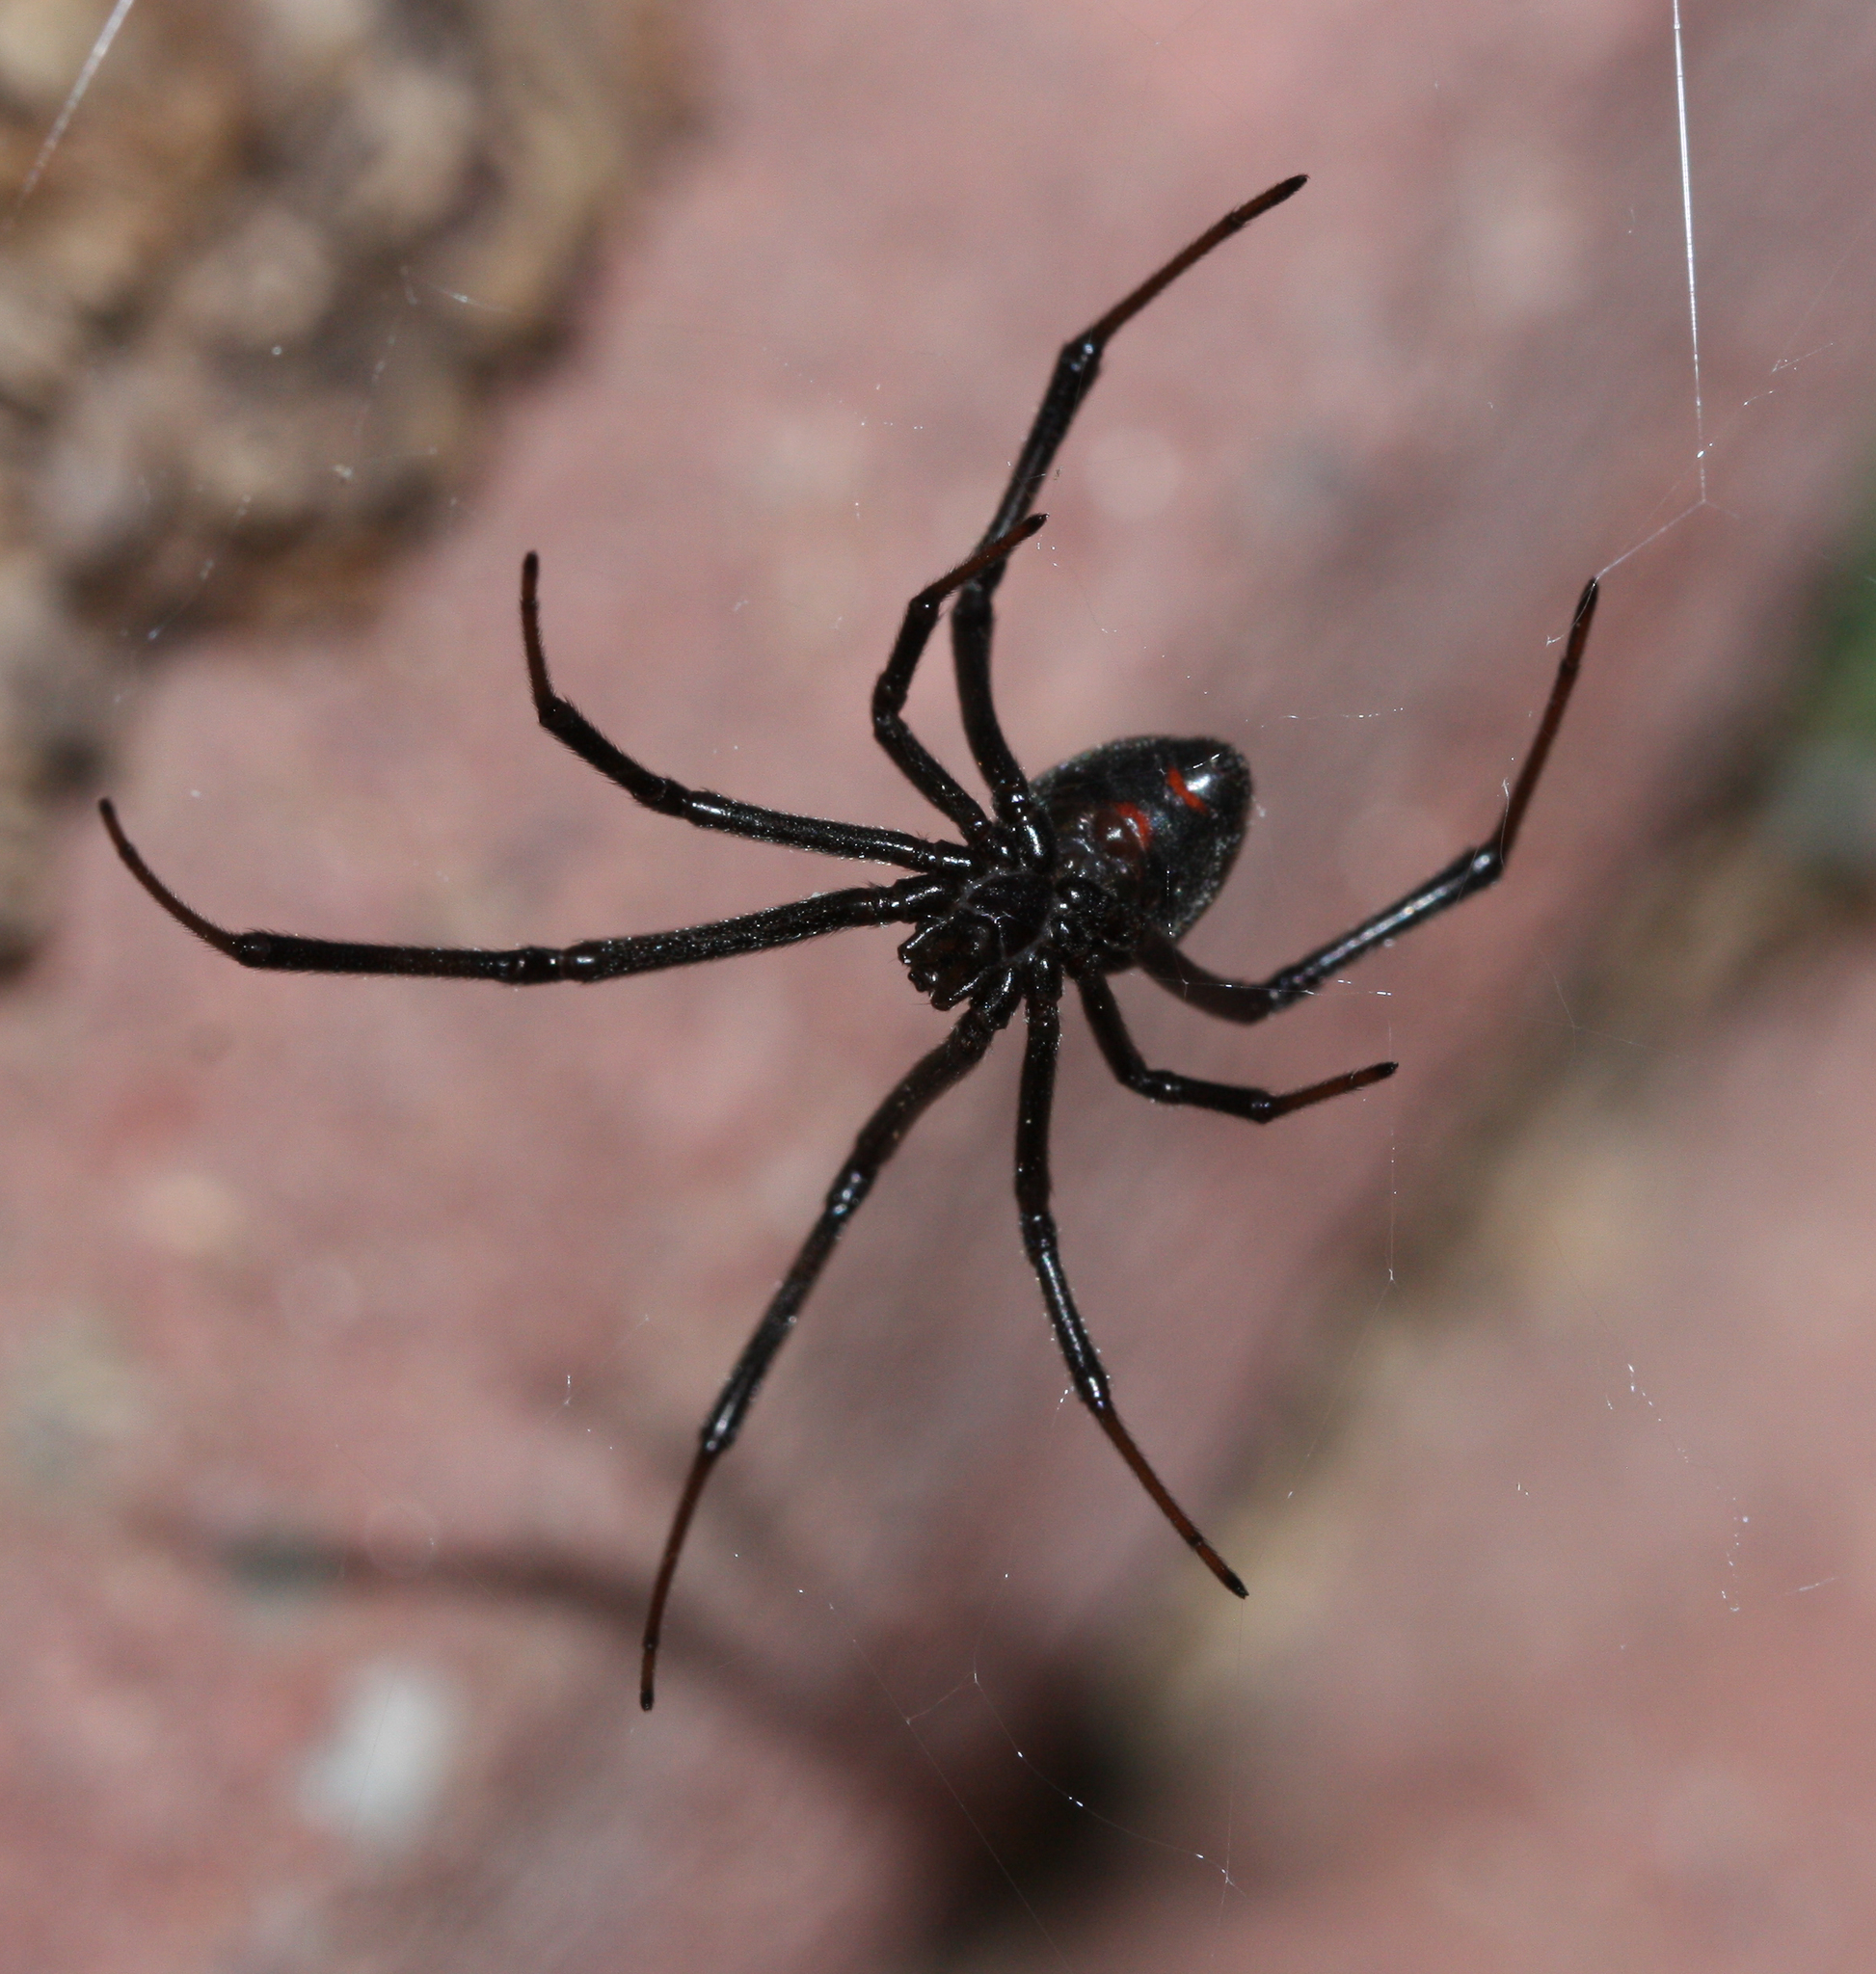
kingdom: Animalia
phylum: Arthropoda
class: Arachnida
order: Araneae
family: Theridiidae
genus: Latrodectus
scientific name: Latrodectus hesperus
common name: Western black widow
